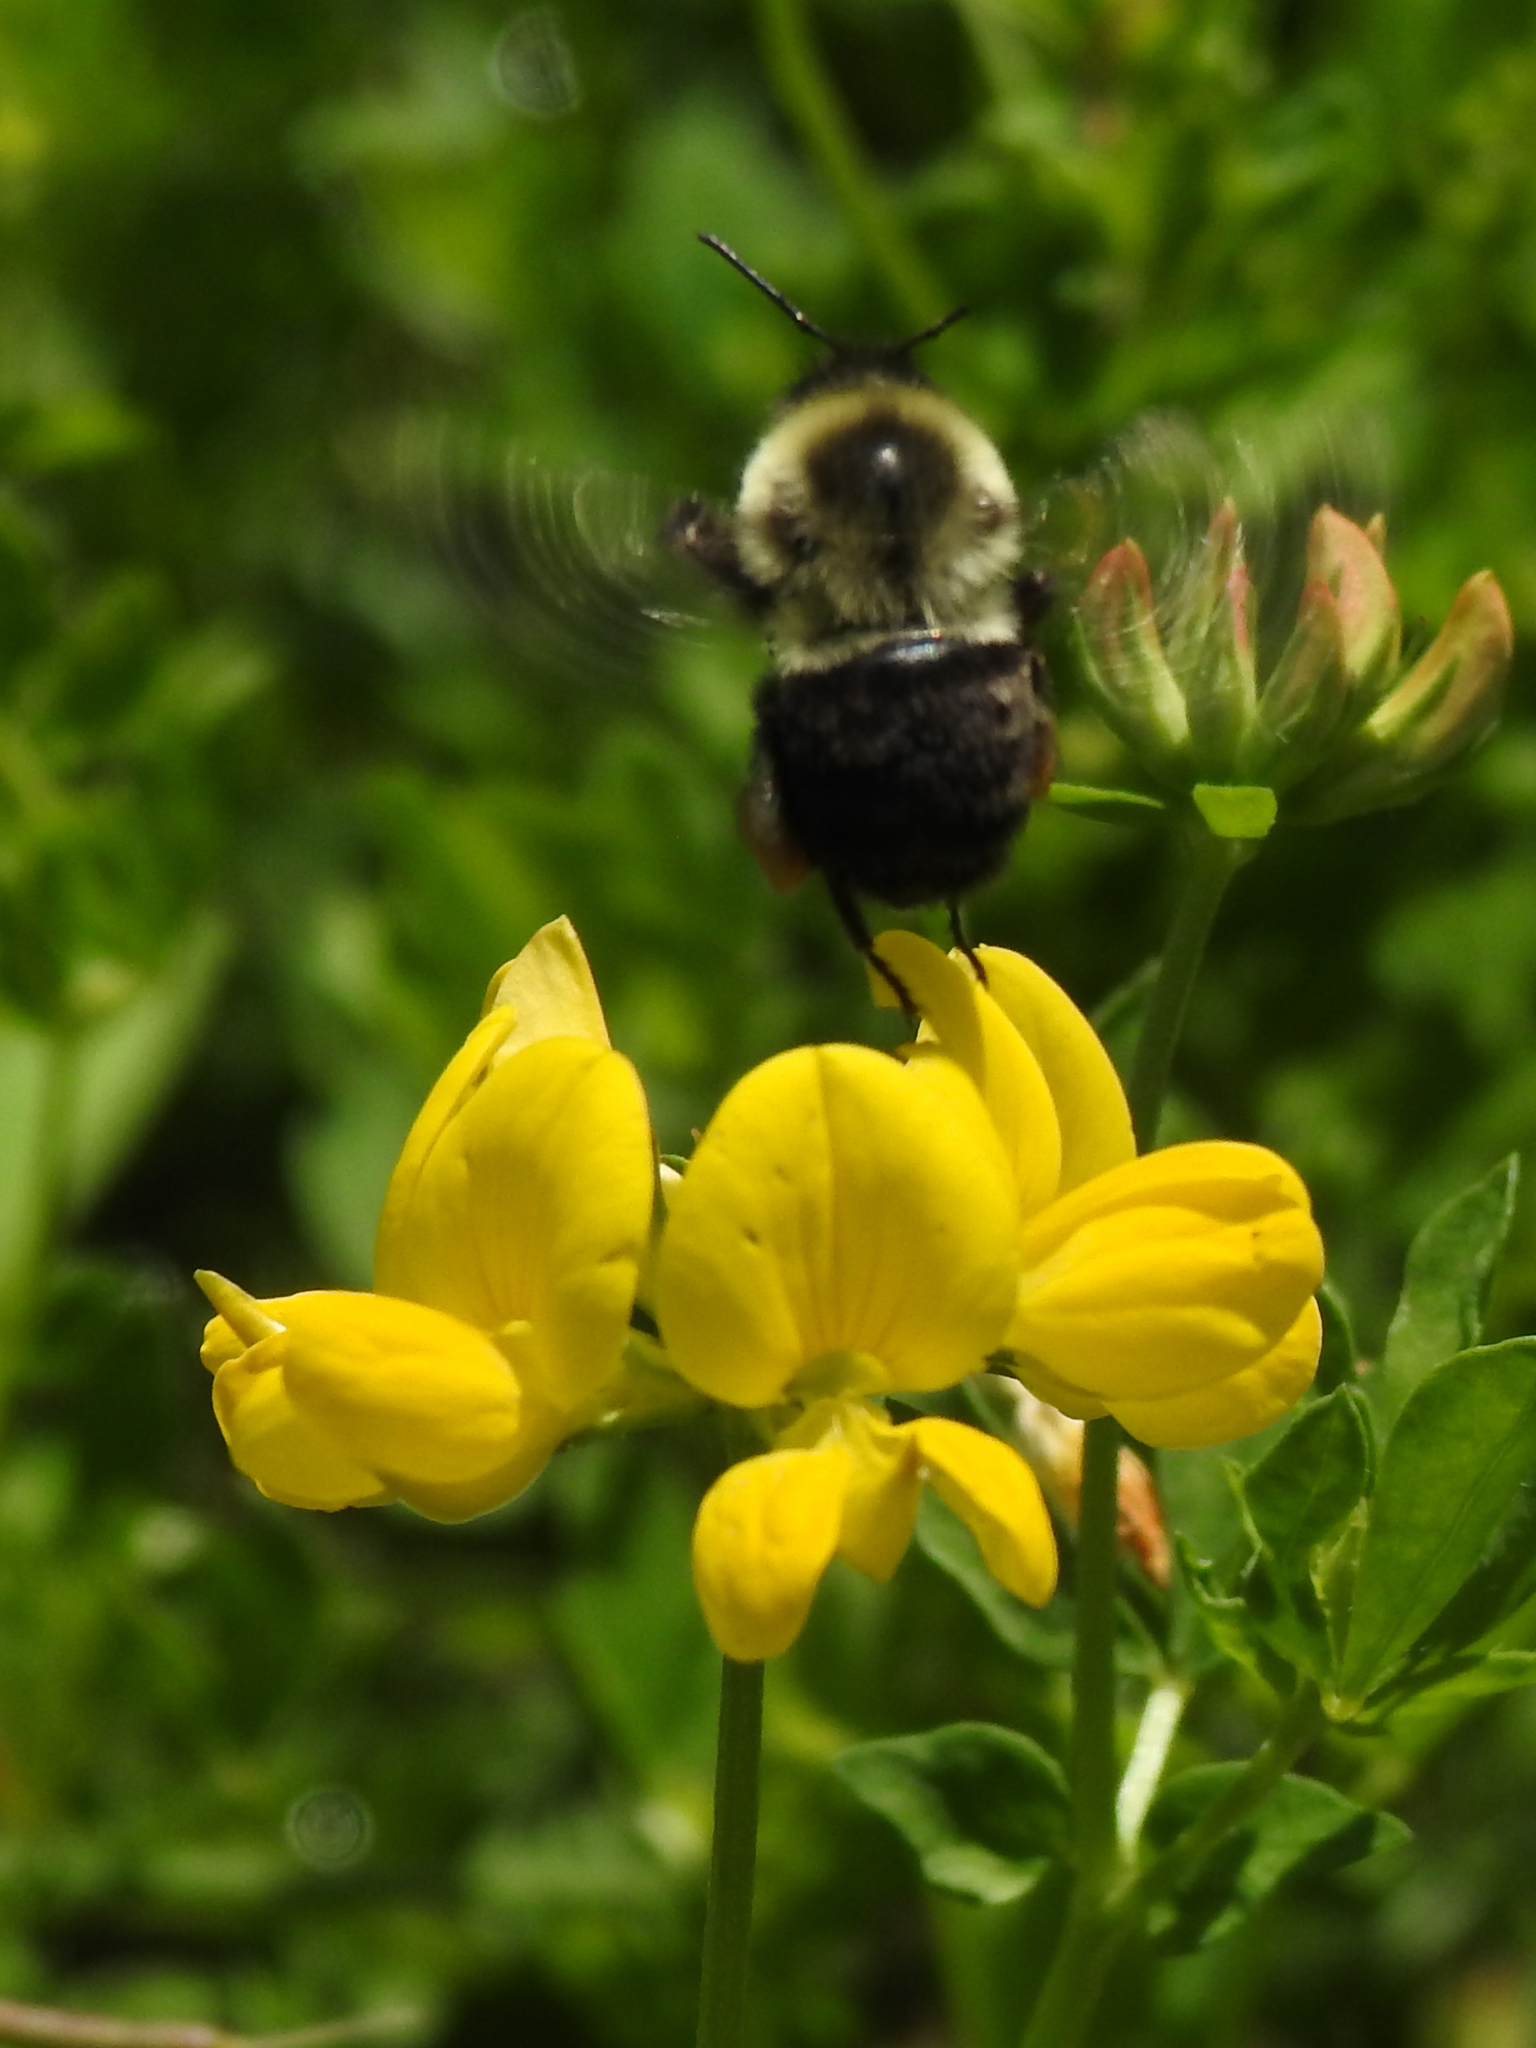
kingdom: Animalia
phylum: Arthropoda
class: Insecta
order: Hymenoptera
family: Apidae
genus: Bombus
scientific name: Bombus impatiens
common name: Common eastern bumble bee
